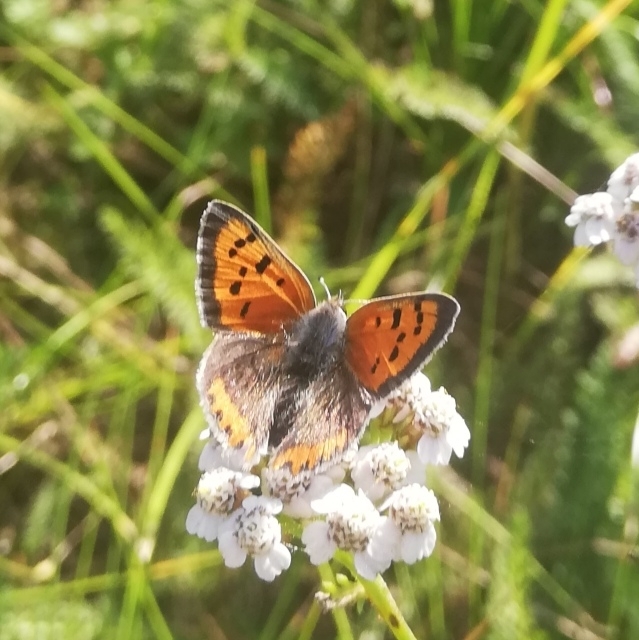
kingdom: Animalia
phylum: Arthropoda
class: Insecta
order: Lepidoptera
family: Lycaenidae
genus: Lycaena
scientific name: Lycaena phlaeas
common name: Small copper
